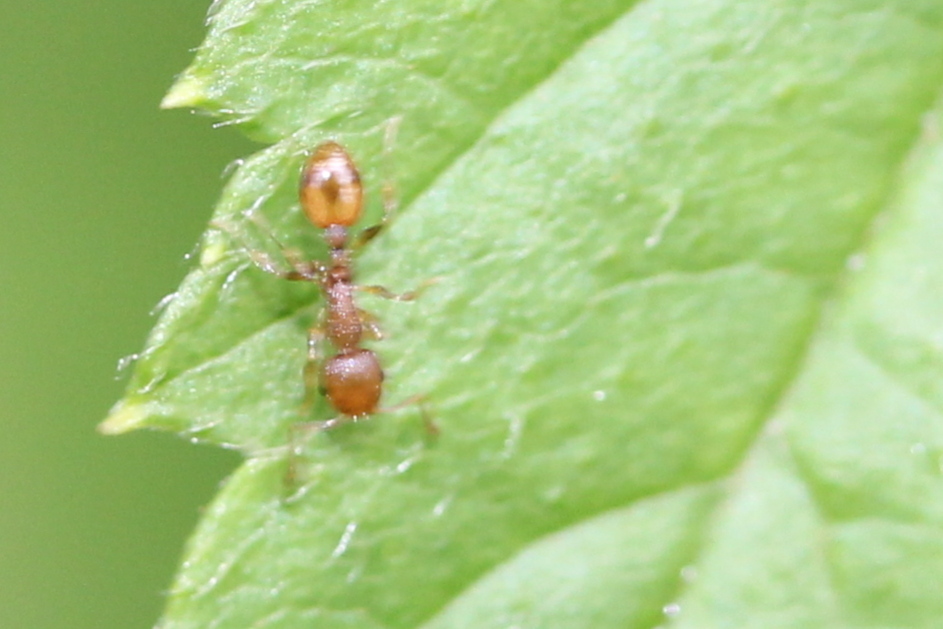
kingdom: Animalia
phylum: Arthropoda
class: Insecta
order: Hymenoptera
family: Formicidae
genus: Temnothorax
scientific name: Temnothorax curvispinosus
